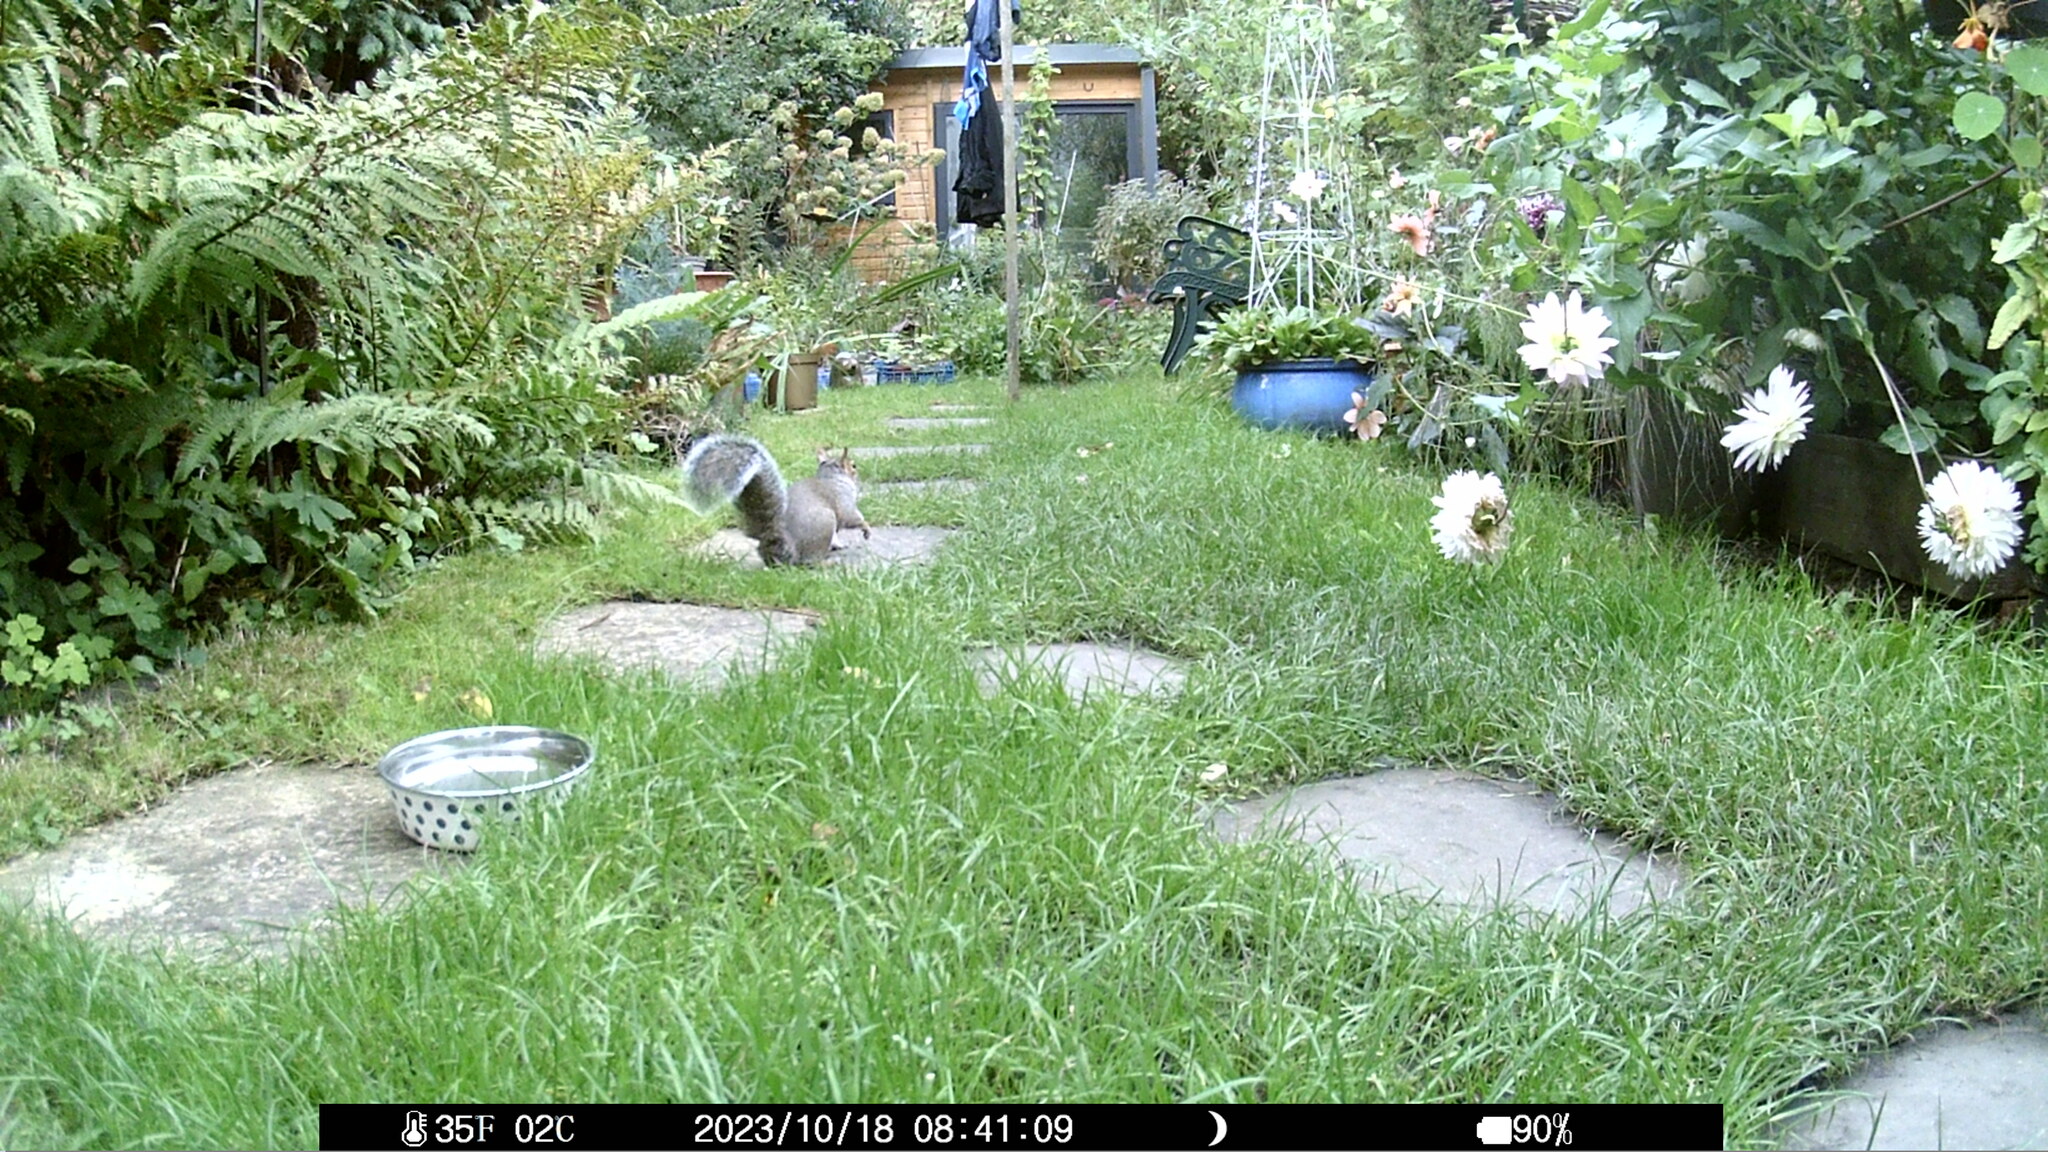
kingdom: Animalia
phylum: Chordata
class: Mammalia
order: Rodentia
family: Sciuridae
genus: Sciurus
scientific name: Sciurus carolinensis
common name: Eastern gray squirrel
